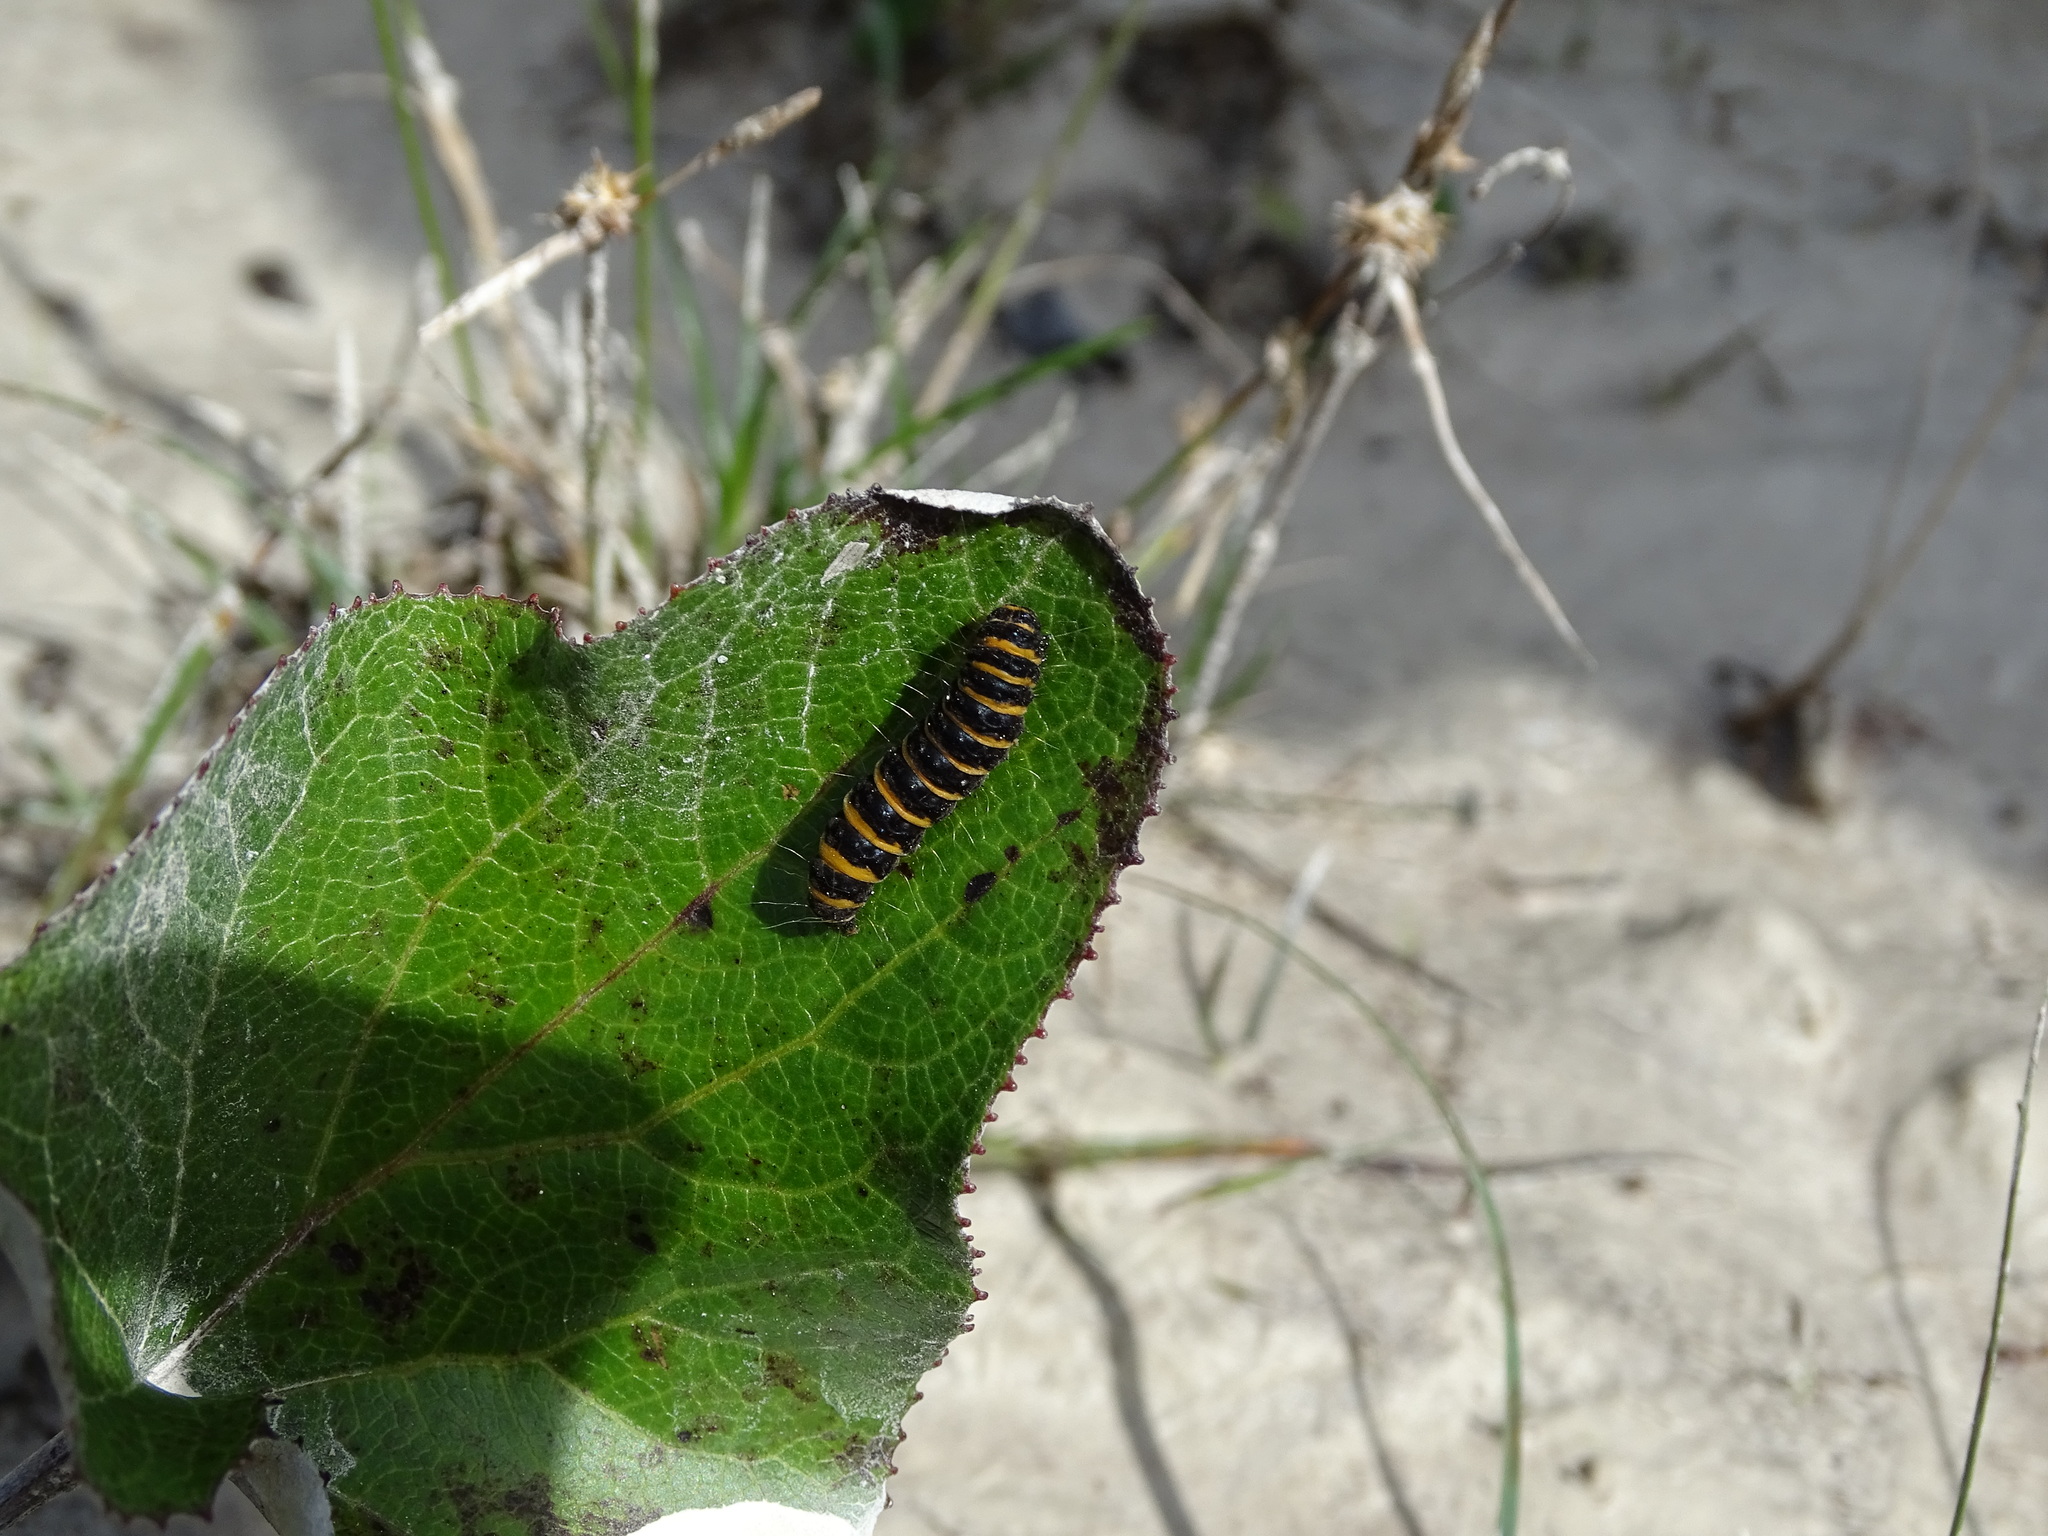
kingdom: Animalia
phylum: Arthropoda
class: Insecta
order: Lepidoptera
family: Erebidae
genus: Tyria
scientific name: Tyria jacobaeae
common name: Cinnabar
